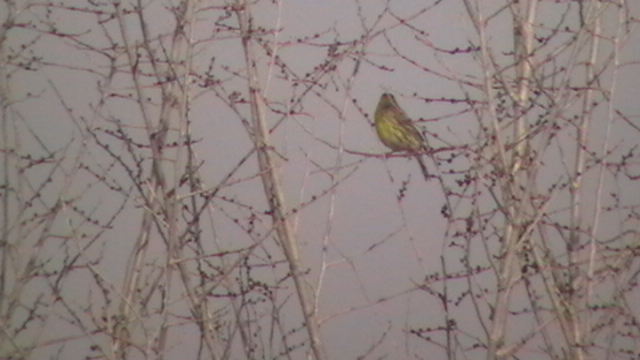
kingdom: Animalia
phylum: Chordata
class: Aves
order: Passeriformes
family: Fringillidae
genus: Serinus
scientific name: Serinus serinus
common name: European serin
